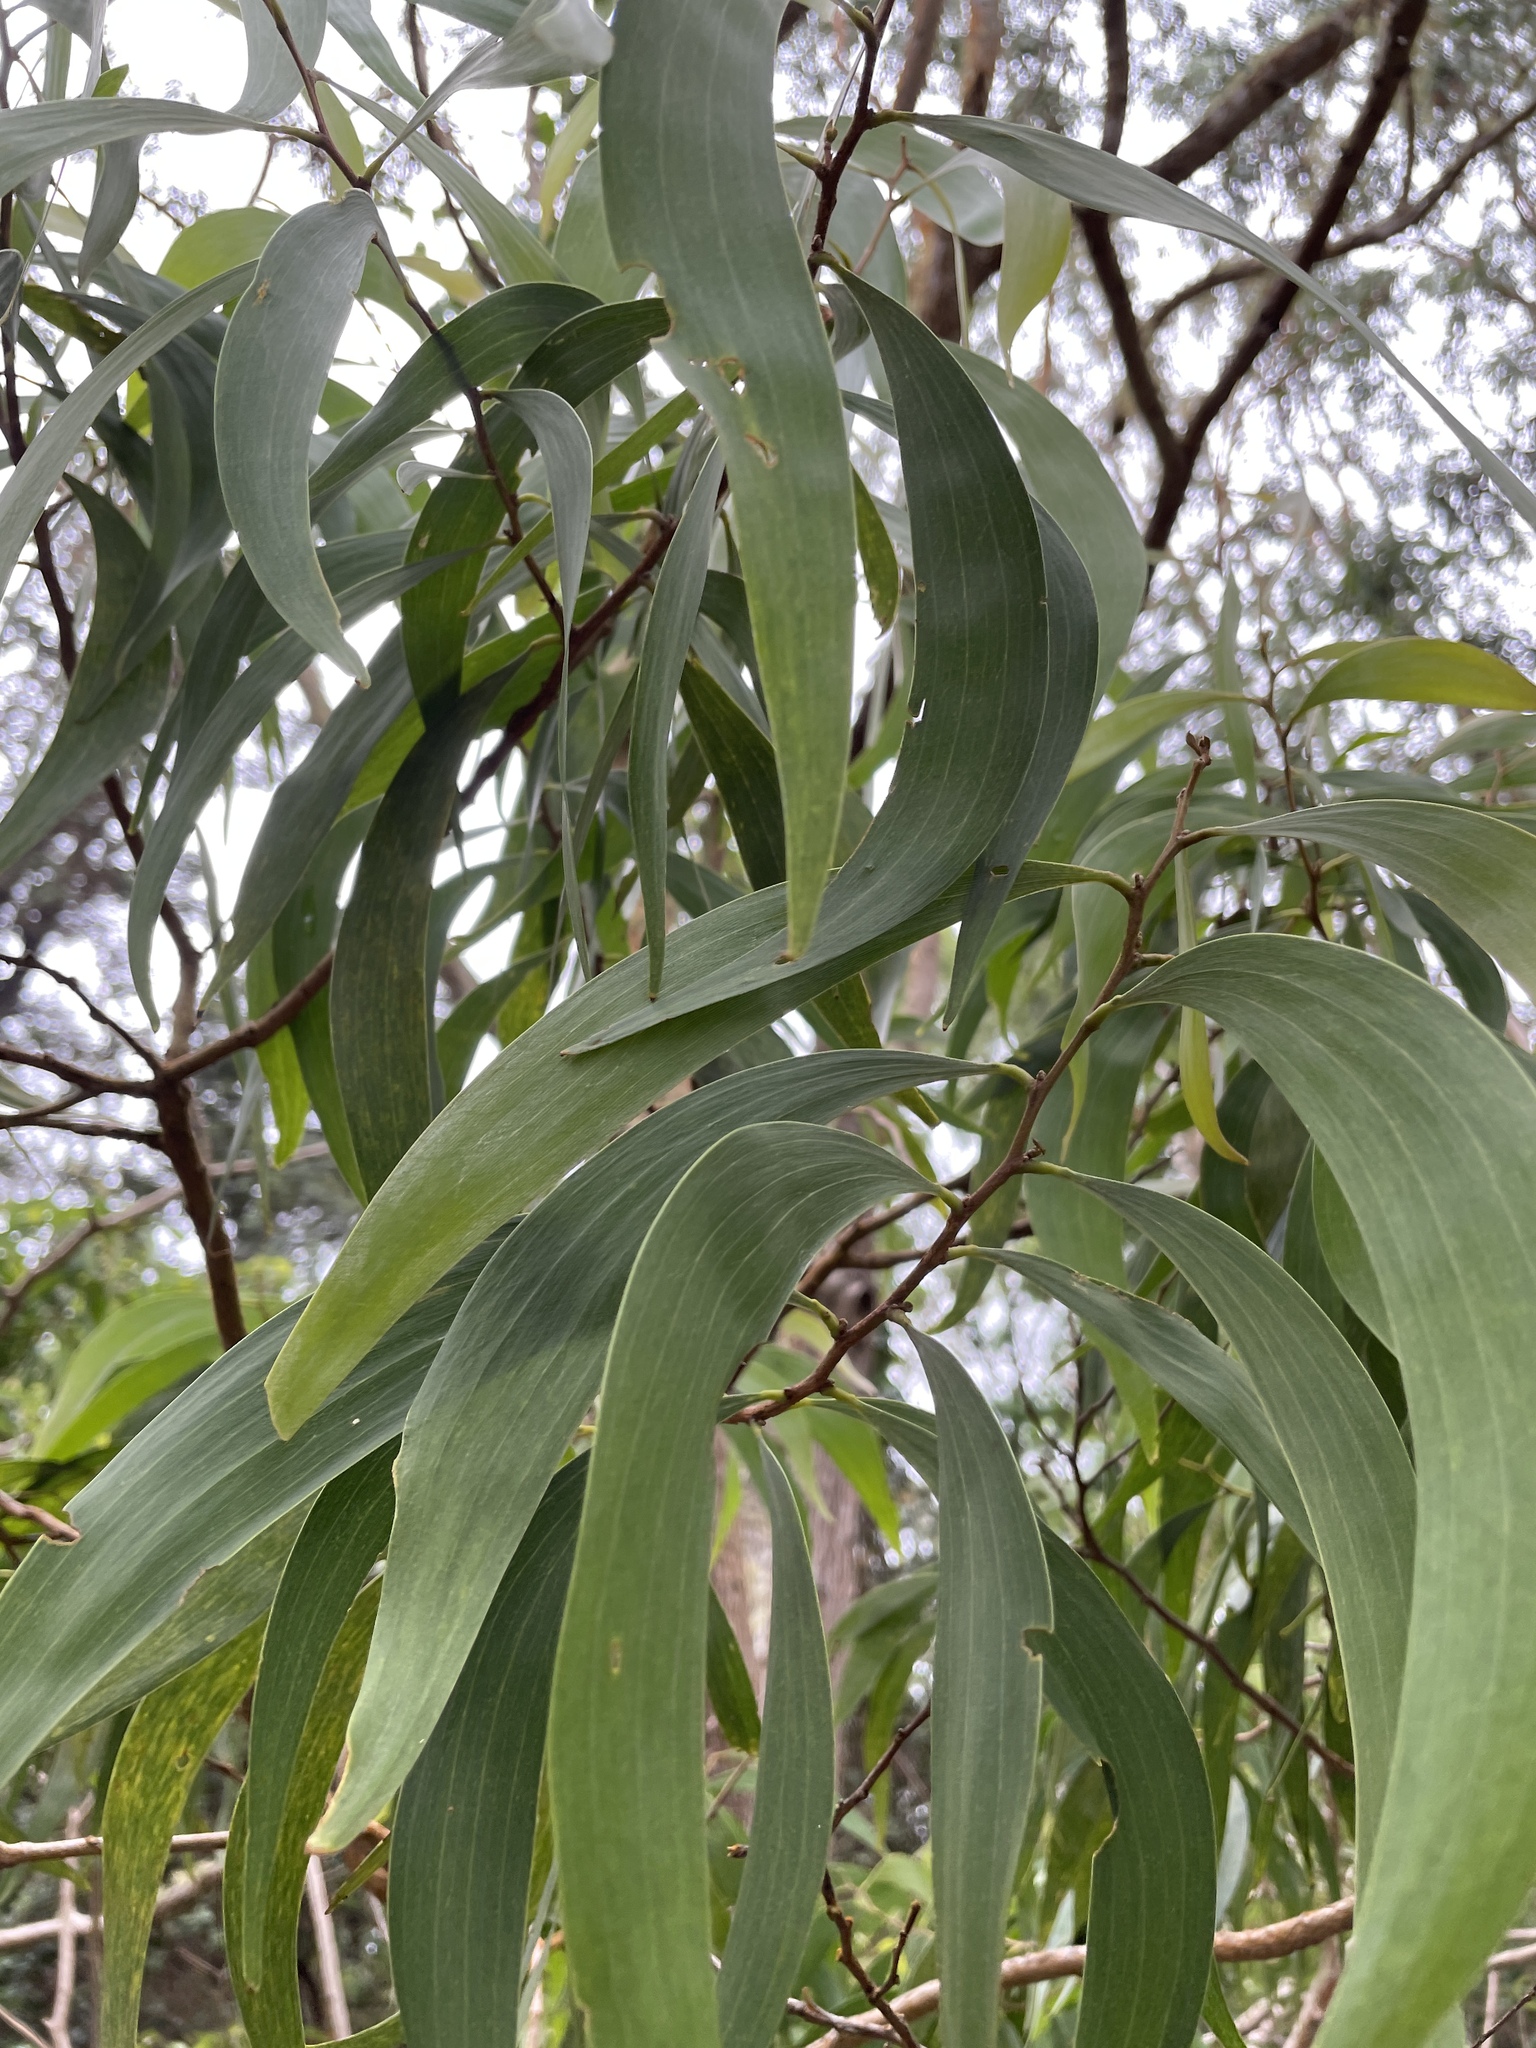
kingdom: Plantae
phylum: Tracheophyta
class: Magnoliopsida
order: Fabales
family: Fabaceae
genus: Acacia
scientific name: Acacia koa
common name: Gray koa
